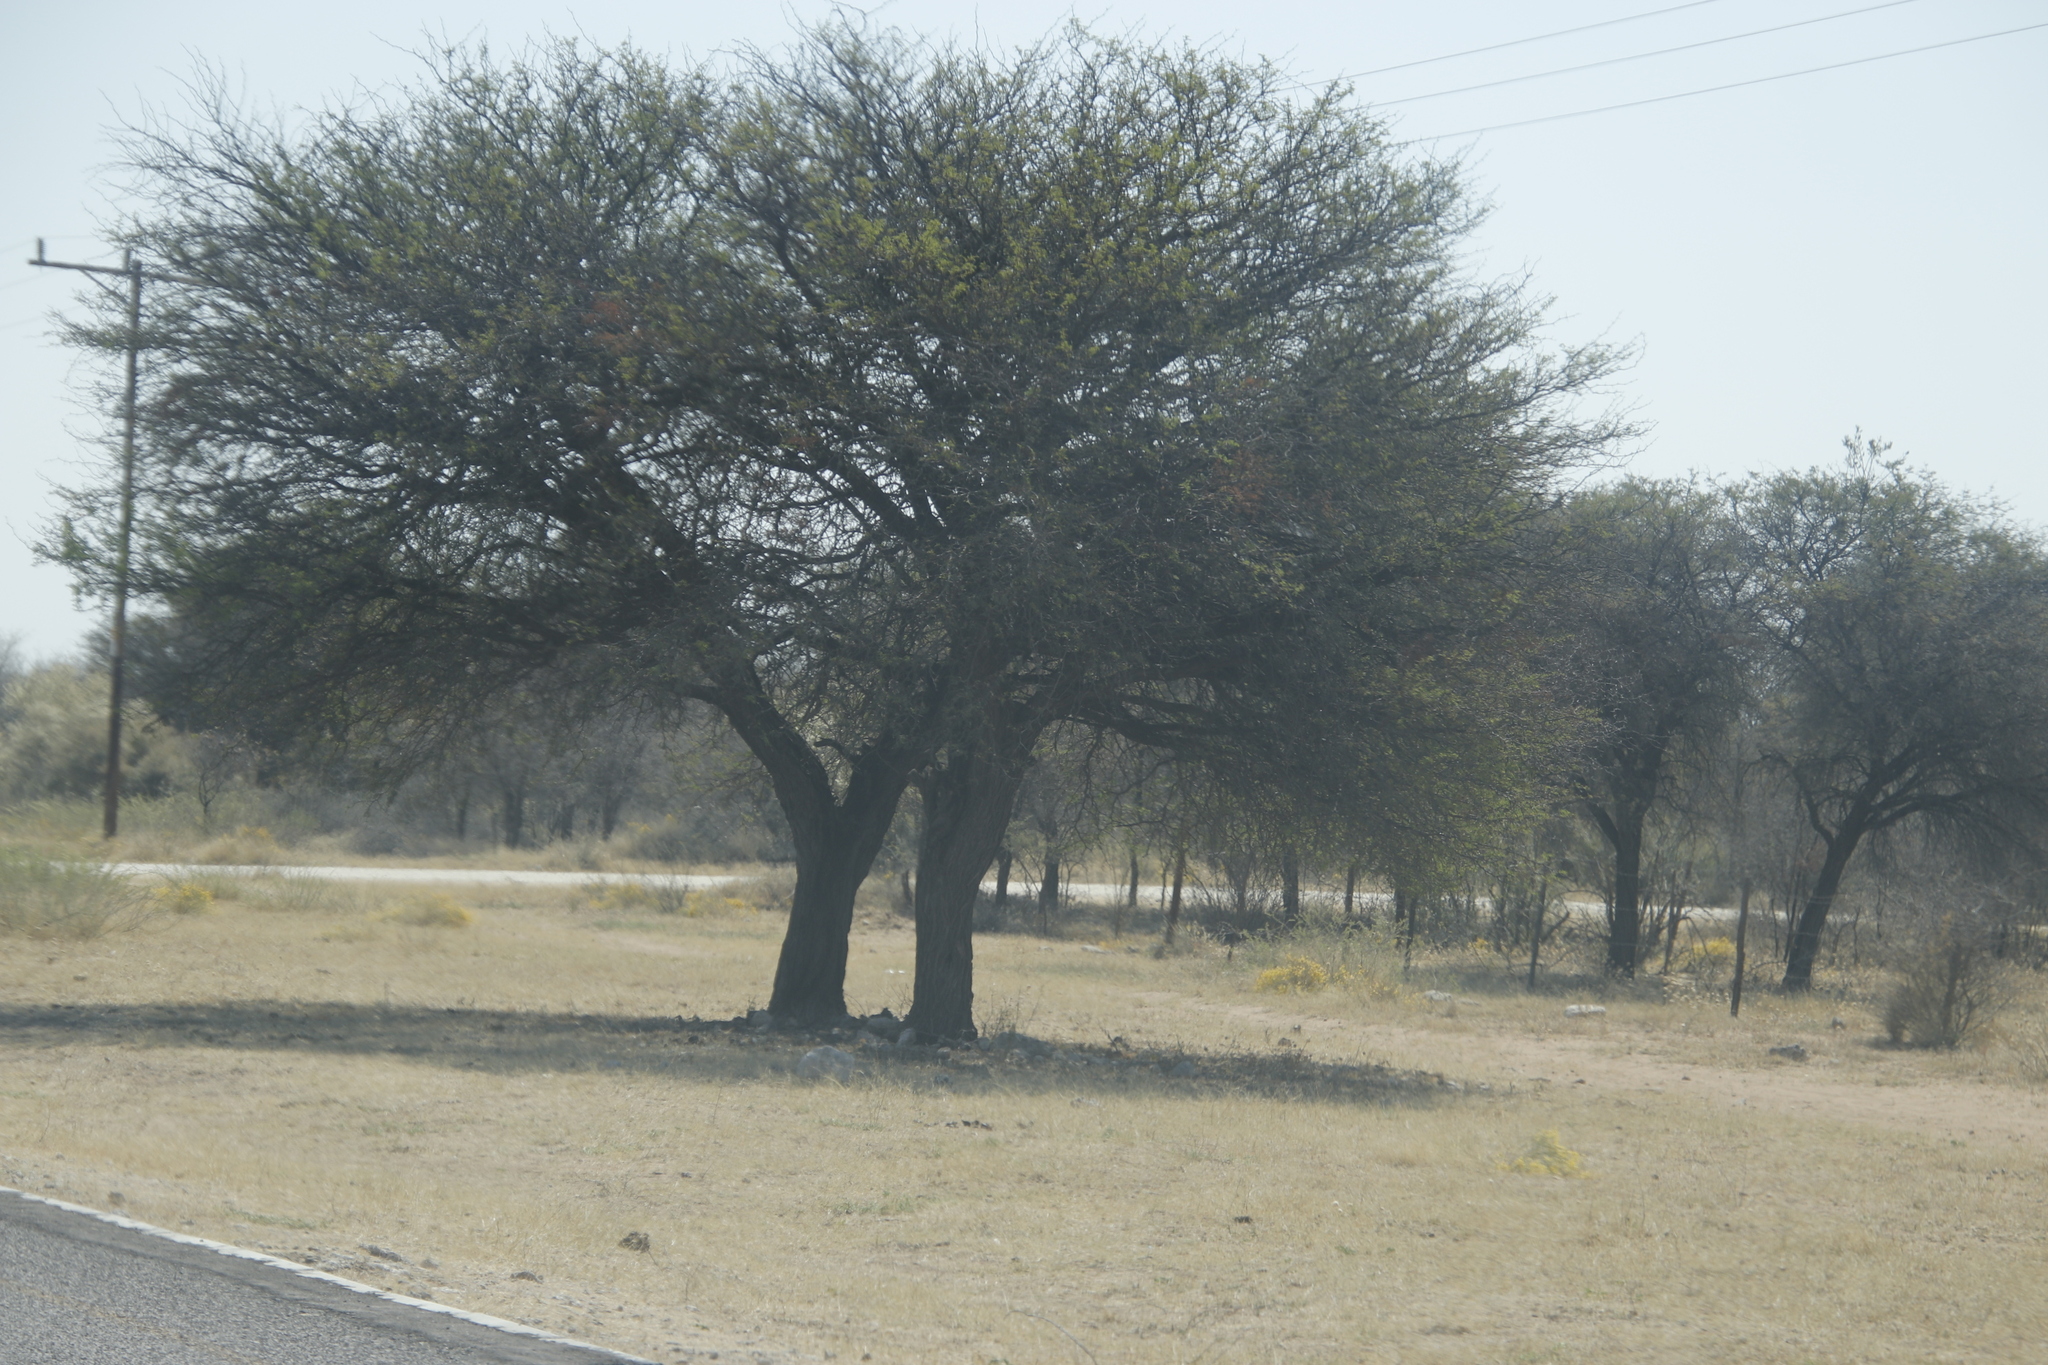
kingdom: Plantae
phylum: Tracheophyta
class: Magnoliopsida
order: Malvales
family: Thymelaeaceae
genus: Gnidia
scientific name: Gnidia polycephala
